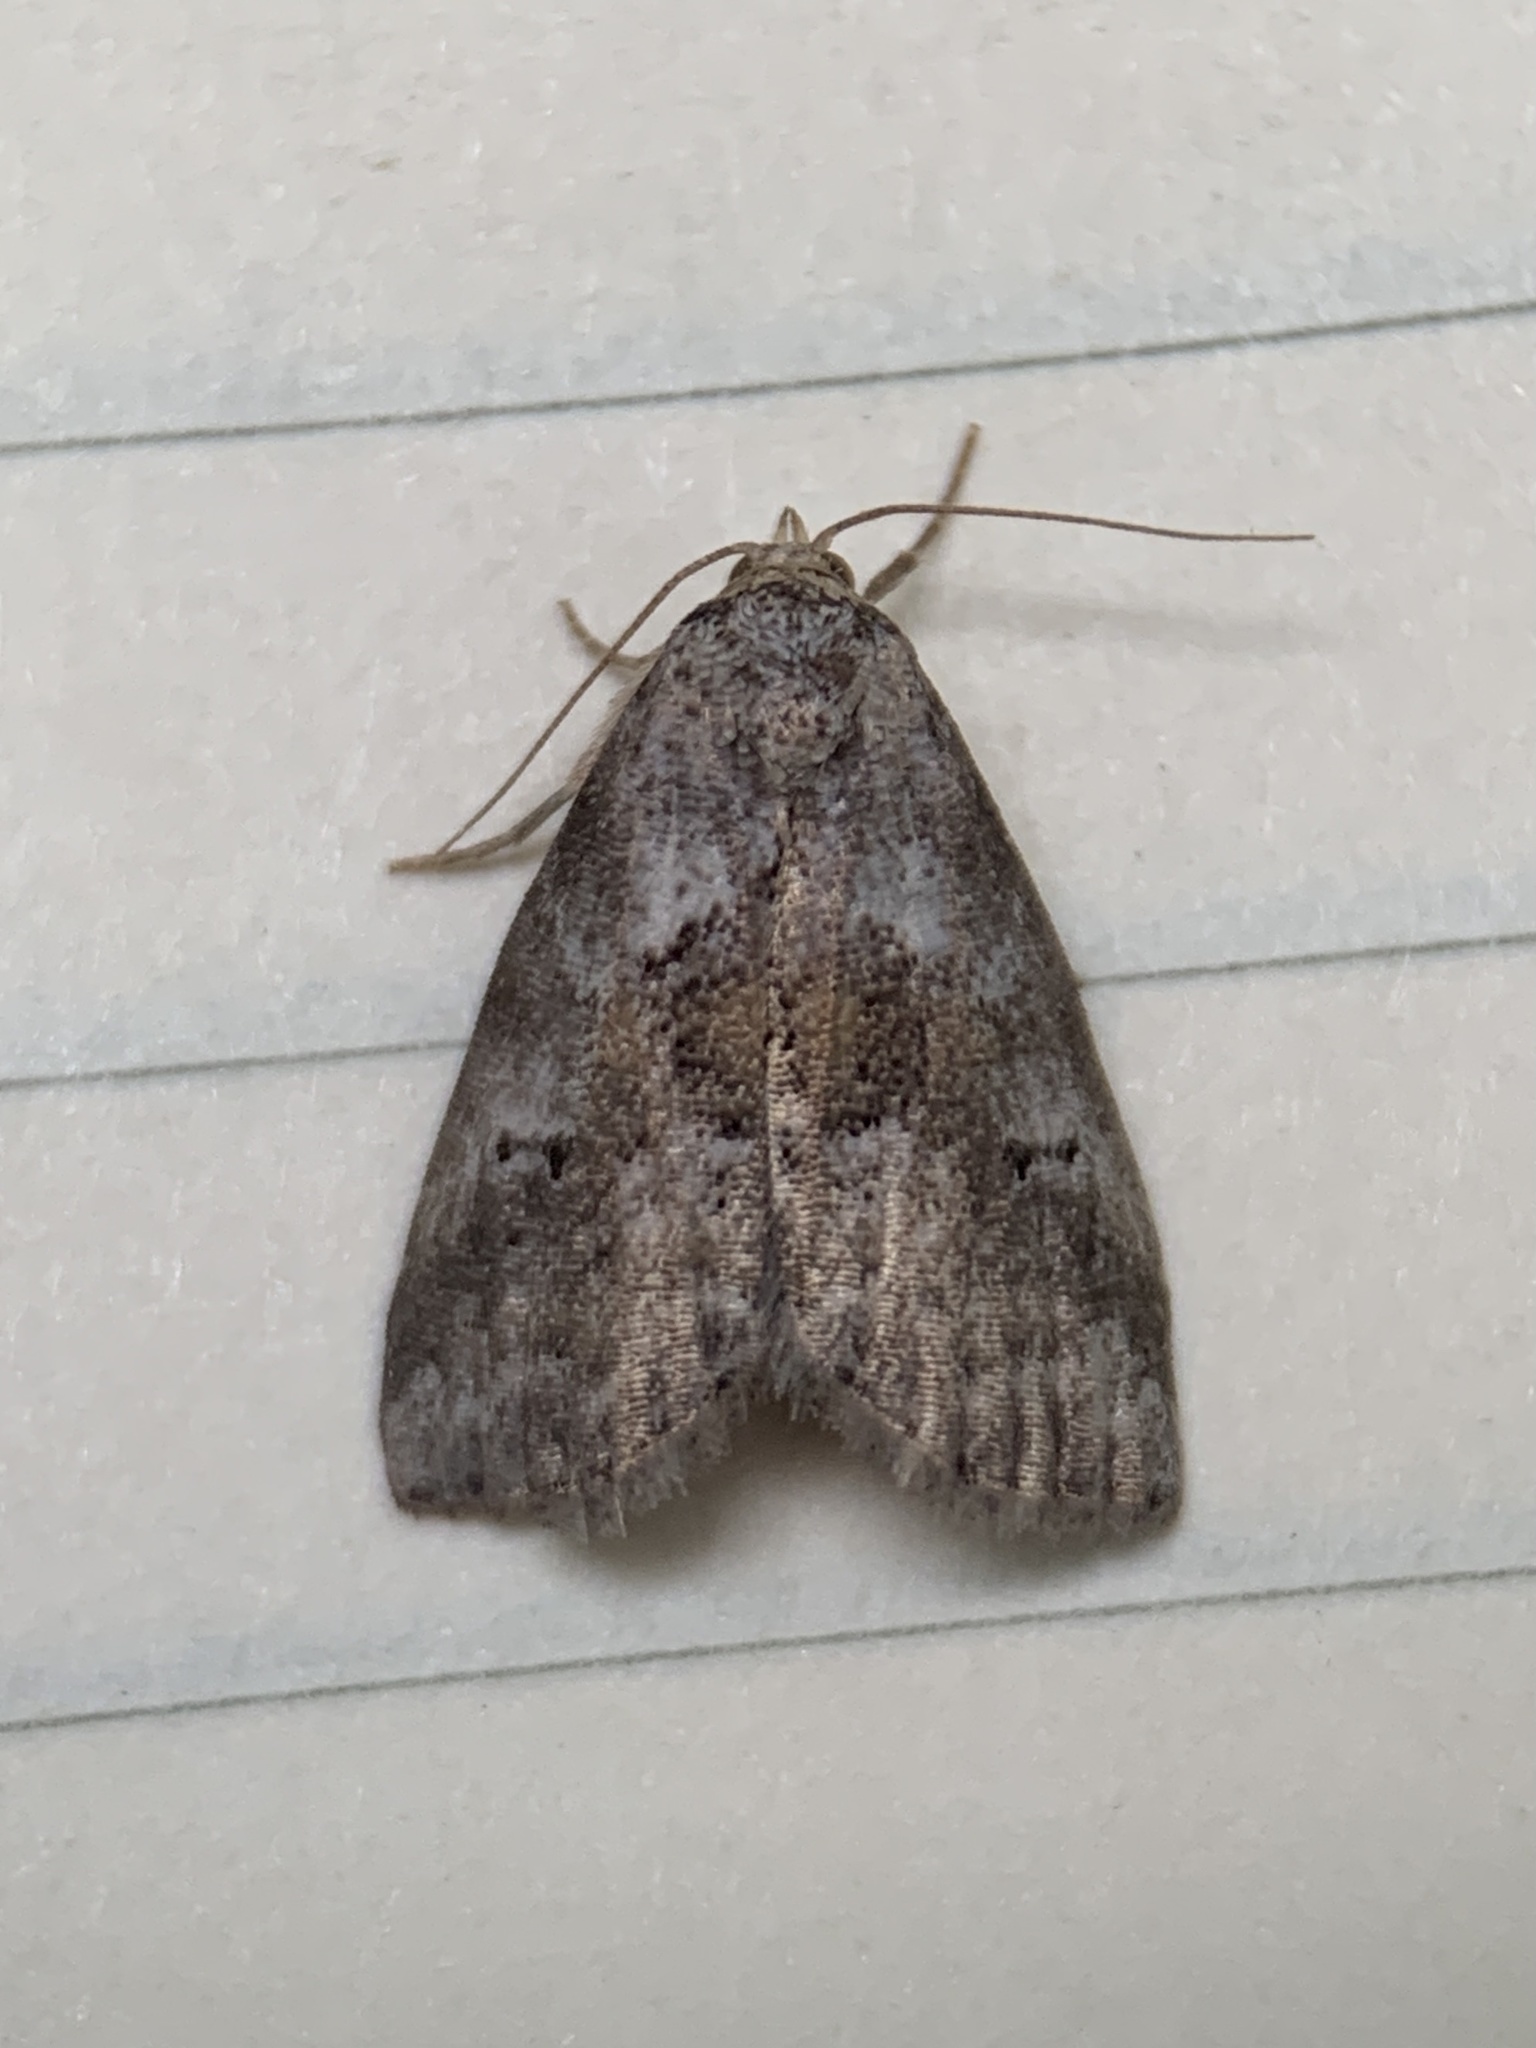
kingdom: Animalia
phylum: Arthropoda
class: Insecta
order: Lepidoptera
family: Erebidae
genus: Hyperstrotia
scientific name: Hyperstrotia secta
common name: Black-patched graylet
